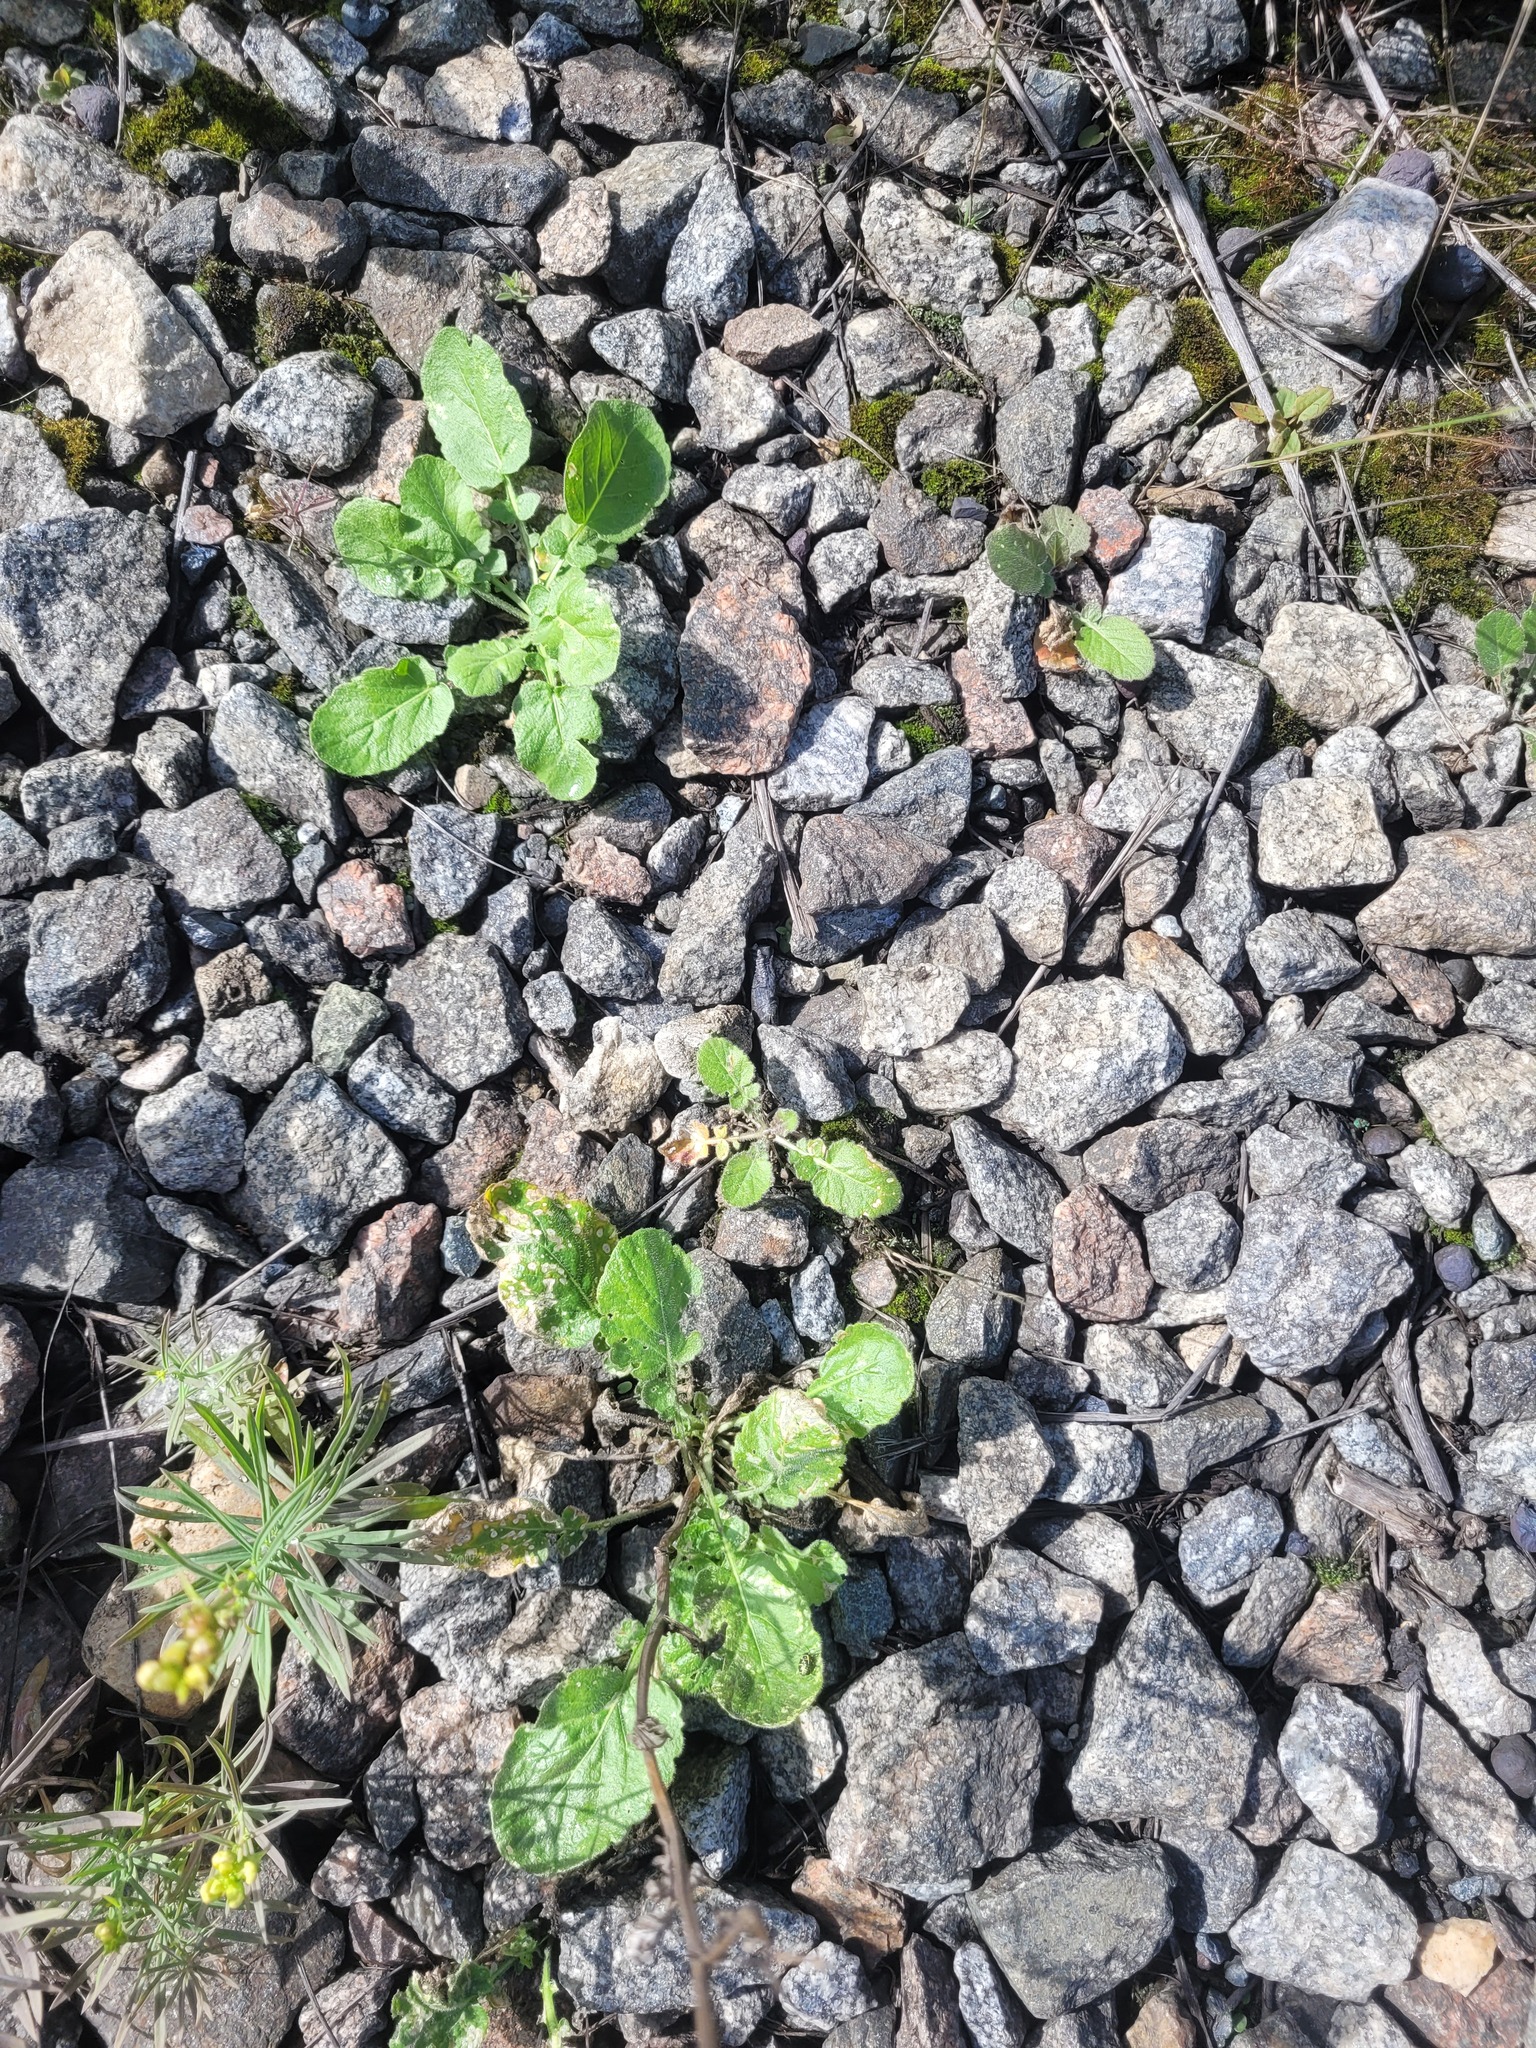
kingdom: Plantae
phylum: Tracheophyta
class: Magnoliopsida
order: Brassicales
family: Brassicaceae
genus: Barbarea
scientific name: Barbarea vulgaris
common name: Cressy-greens
